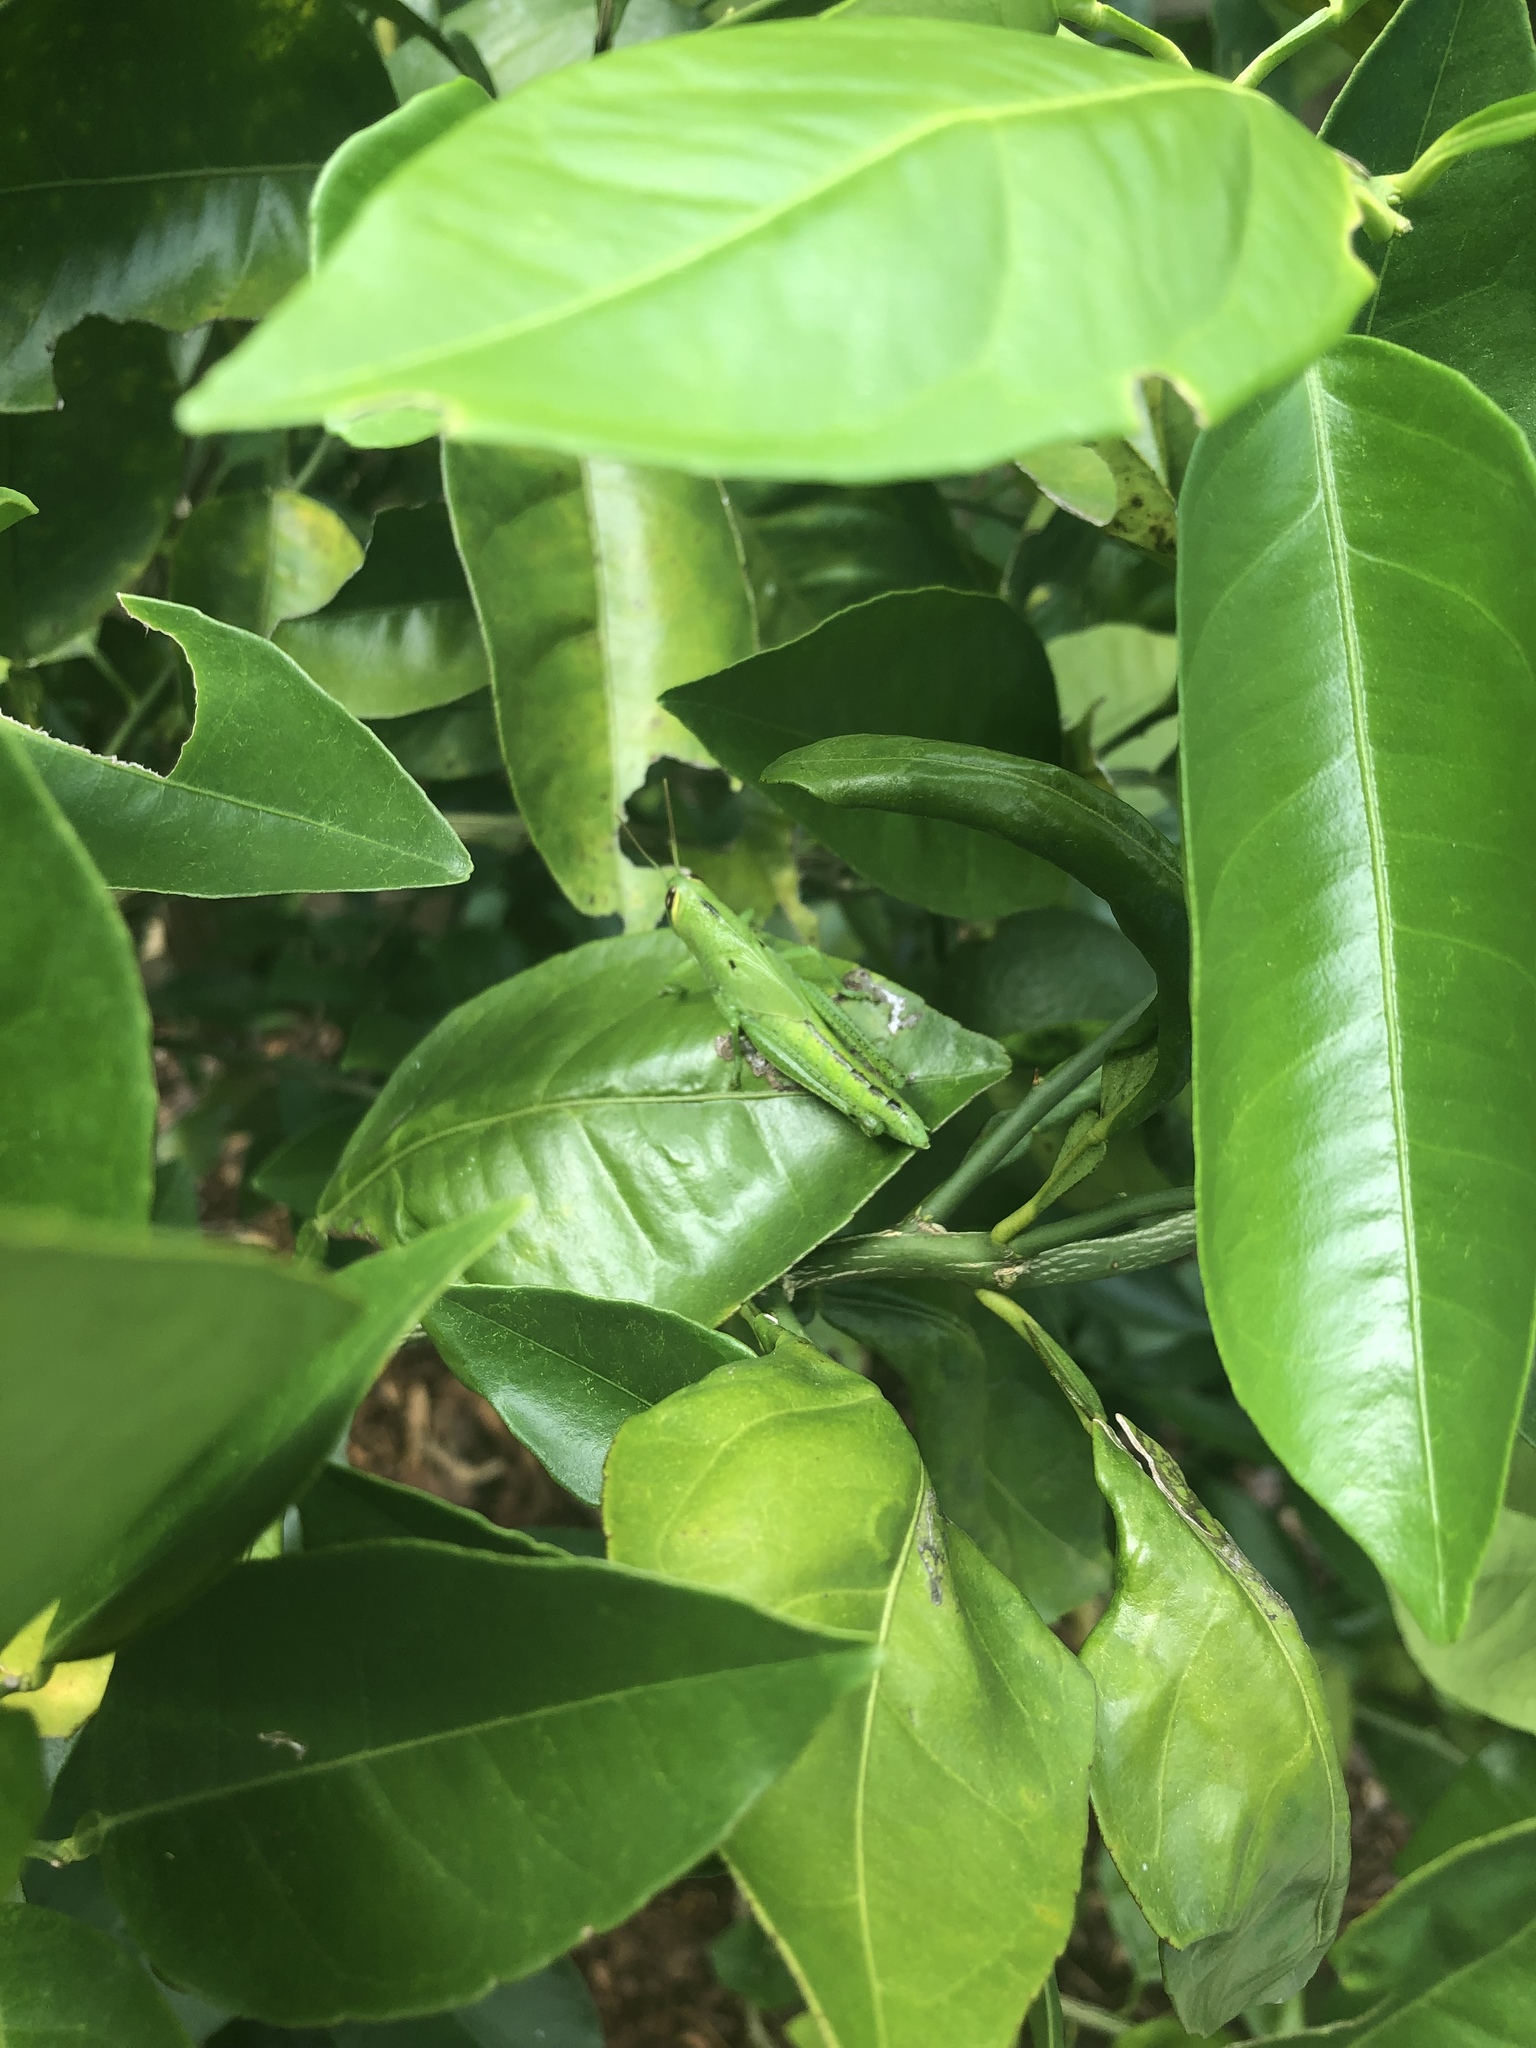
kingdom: Animalia
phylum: Arthropoda
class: Insecta
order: Orthoptera
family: Acrididae
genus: Schistocerca
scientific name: Schistocerca americana
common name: American bird locust
